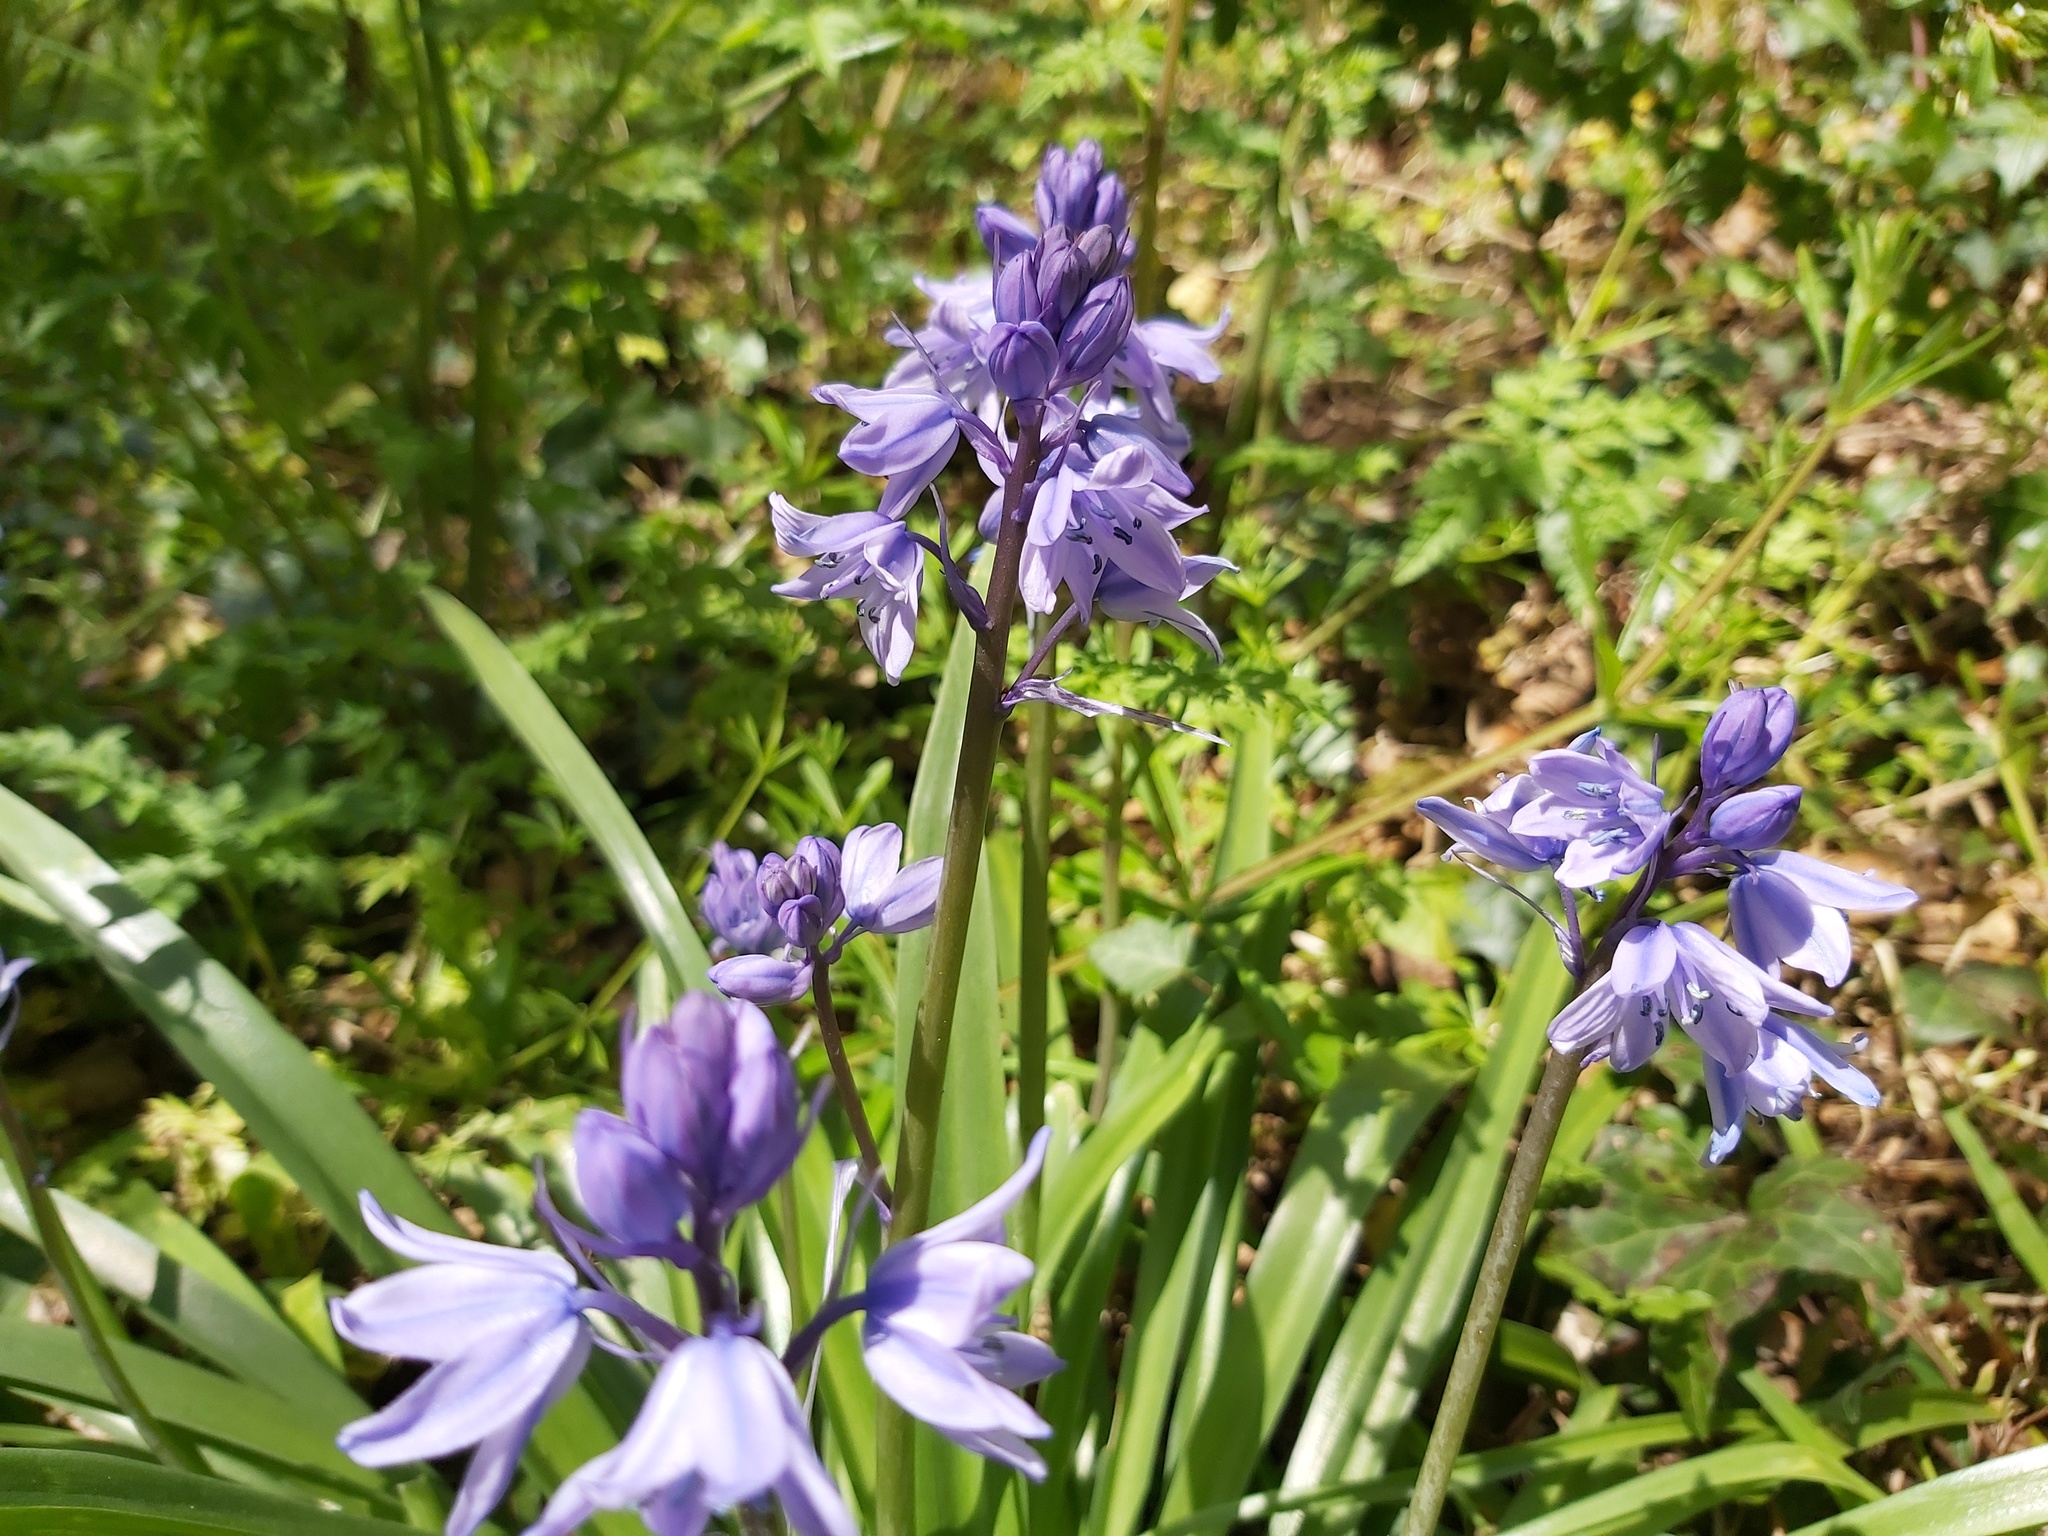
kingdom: Plantae
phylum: Tracheophyta
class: Liliopsida
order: Asparagales
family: Asparagaceae
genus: Hyacinthoides
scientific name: Hyacinthoides hispanica
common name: Spanish bluebell
